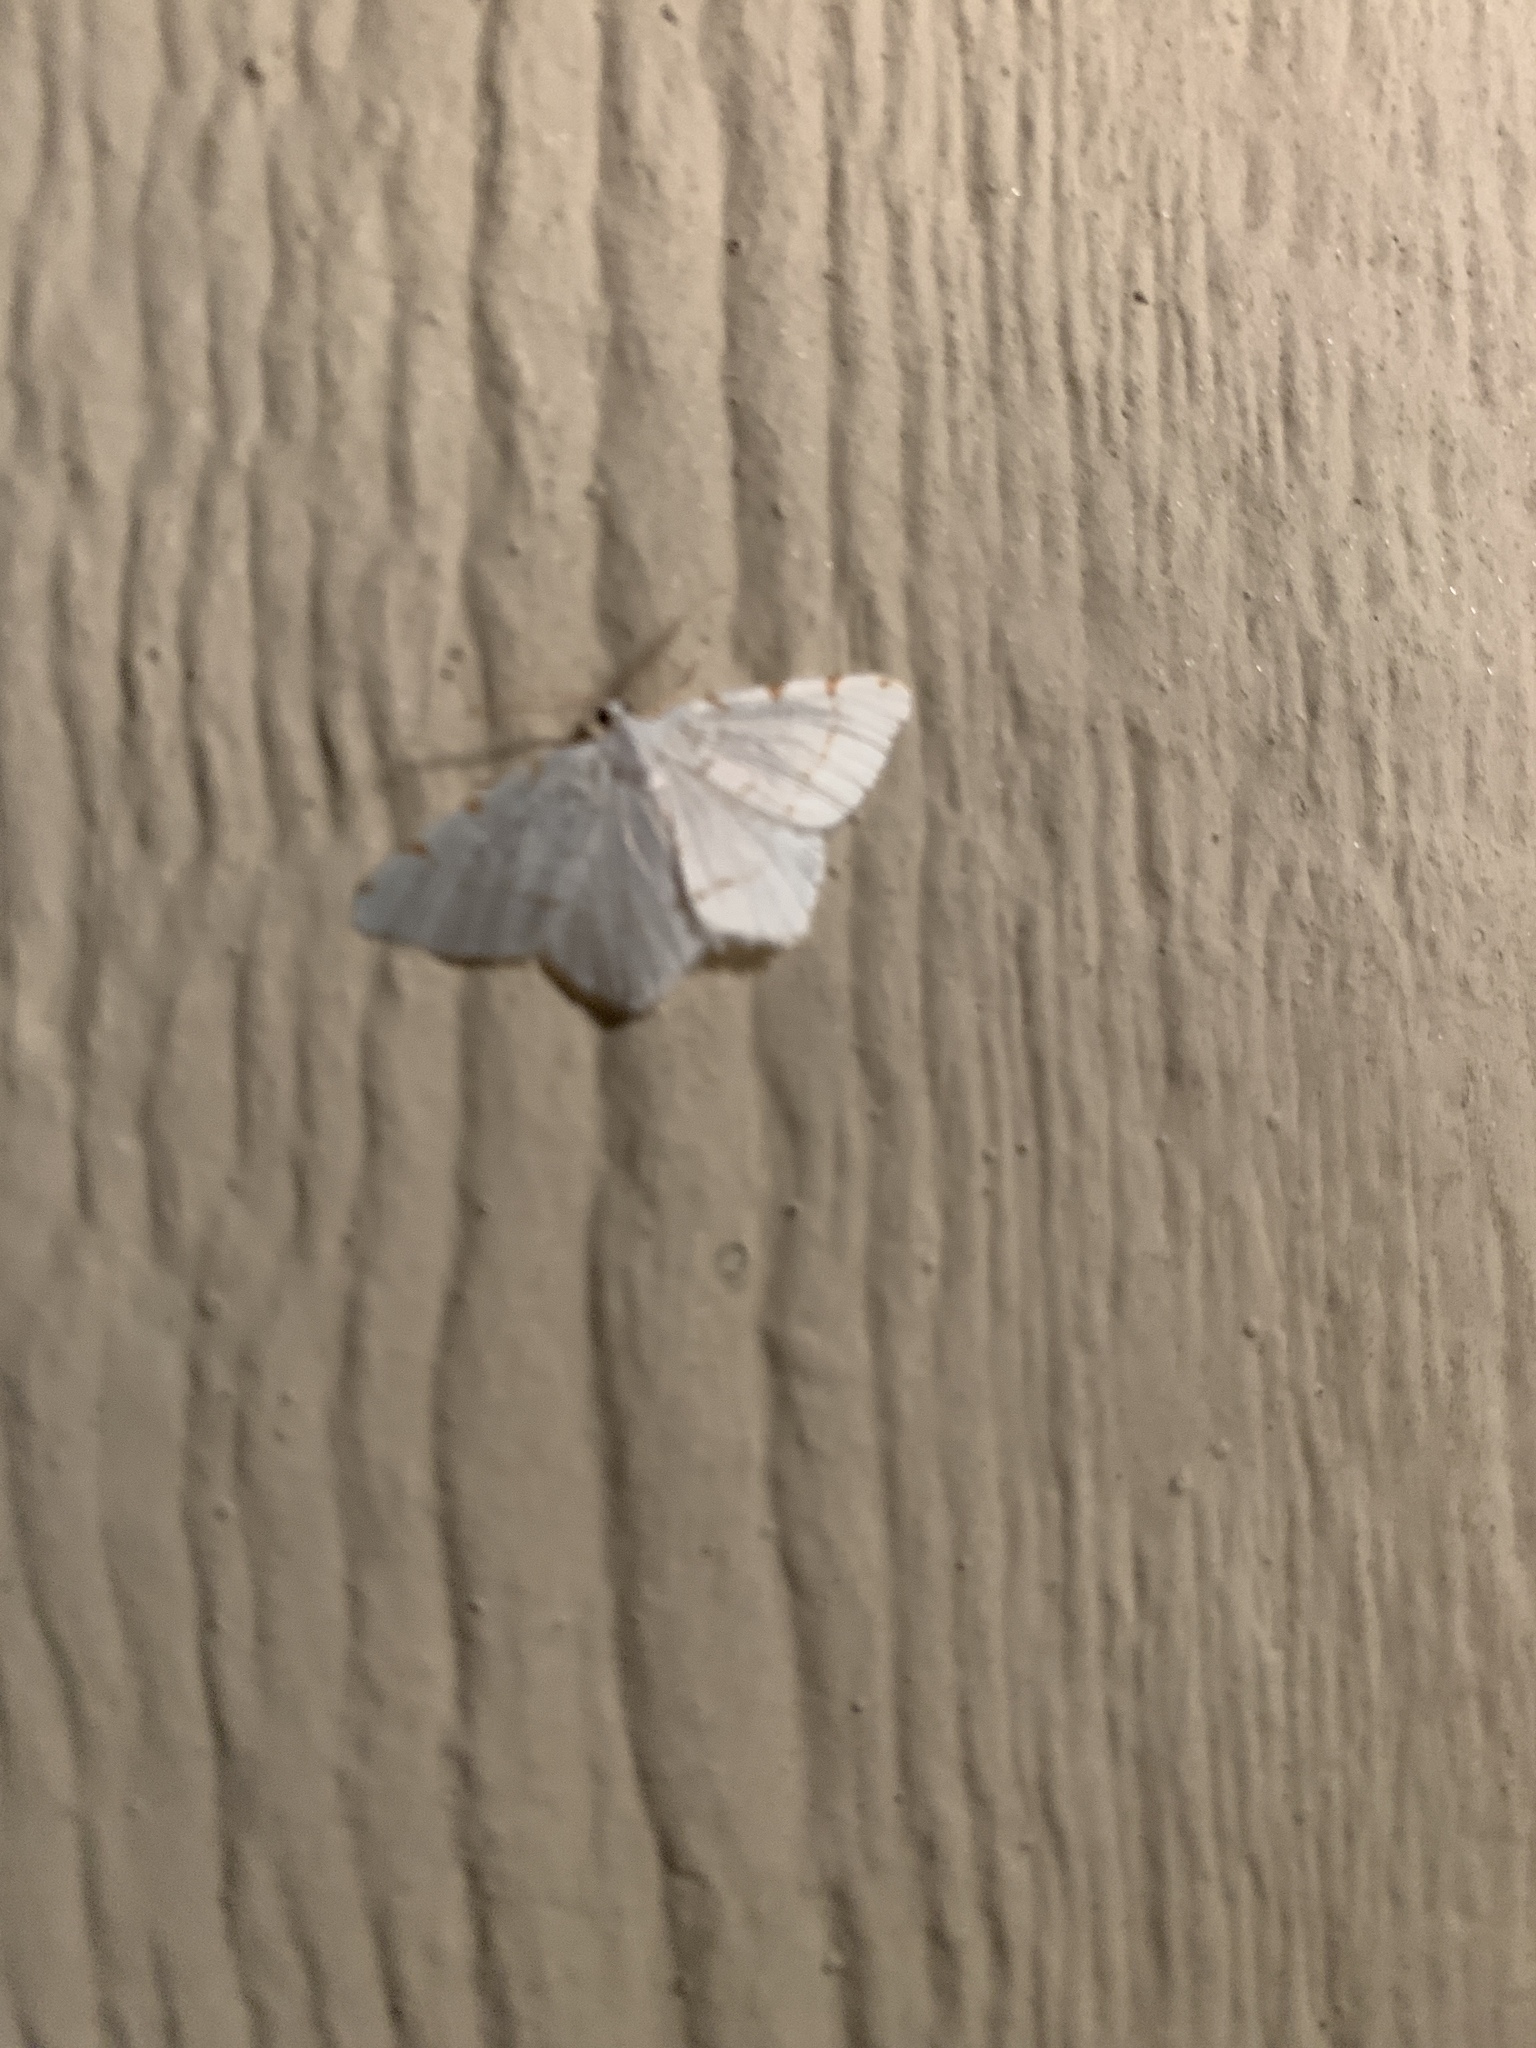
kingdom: Animalia
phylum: Arthropoda
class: Insecta
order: Lepidoptera
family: Geometridae
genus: Macaria
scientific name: Macaria pustularia
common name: Lesser maple spanworm moth
